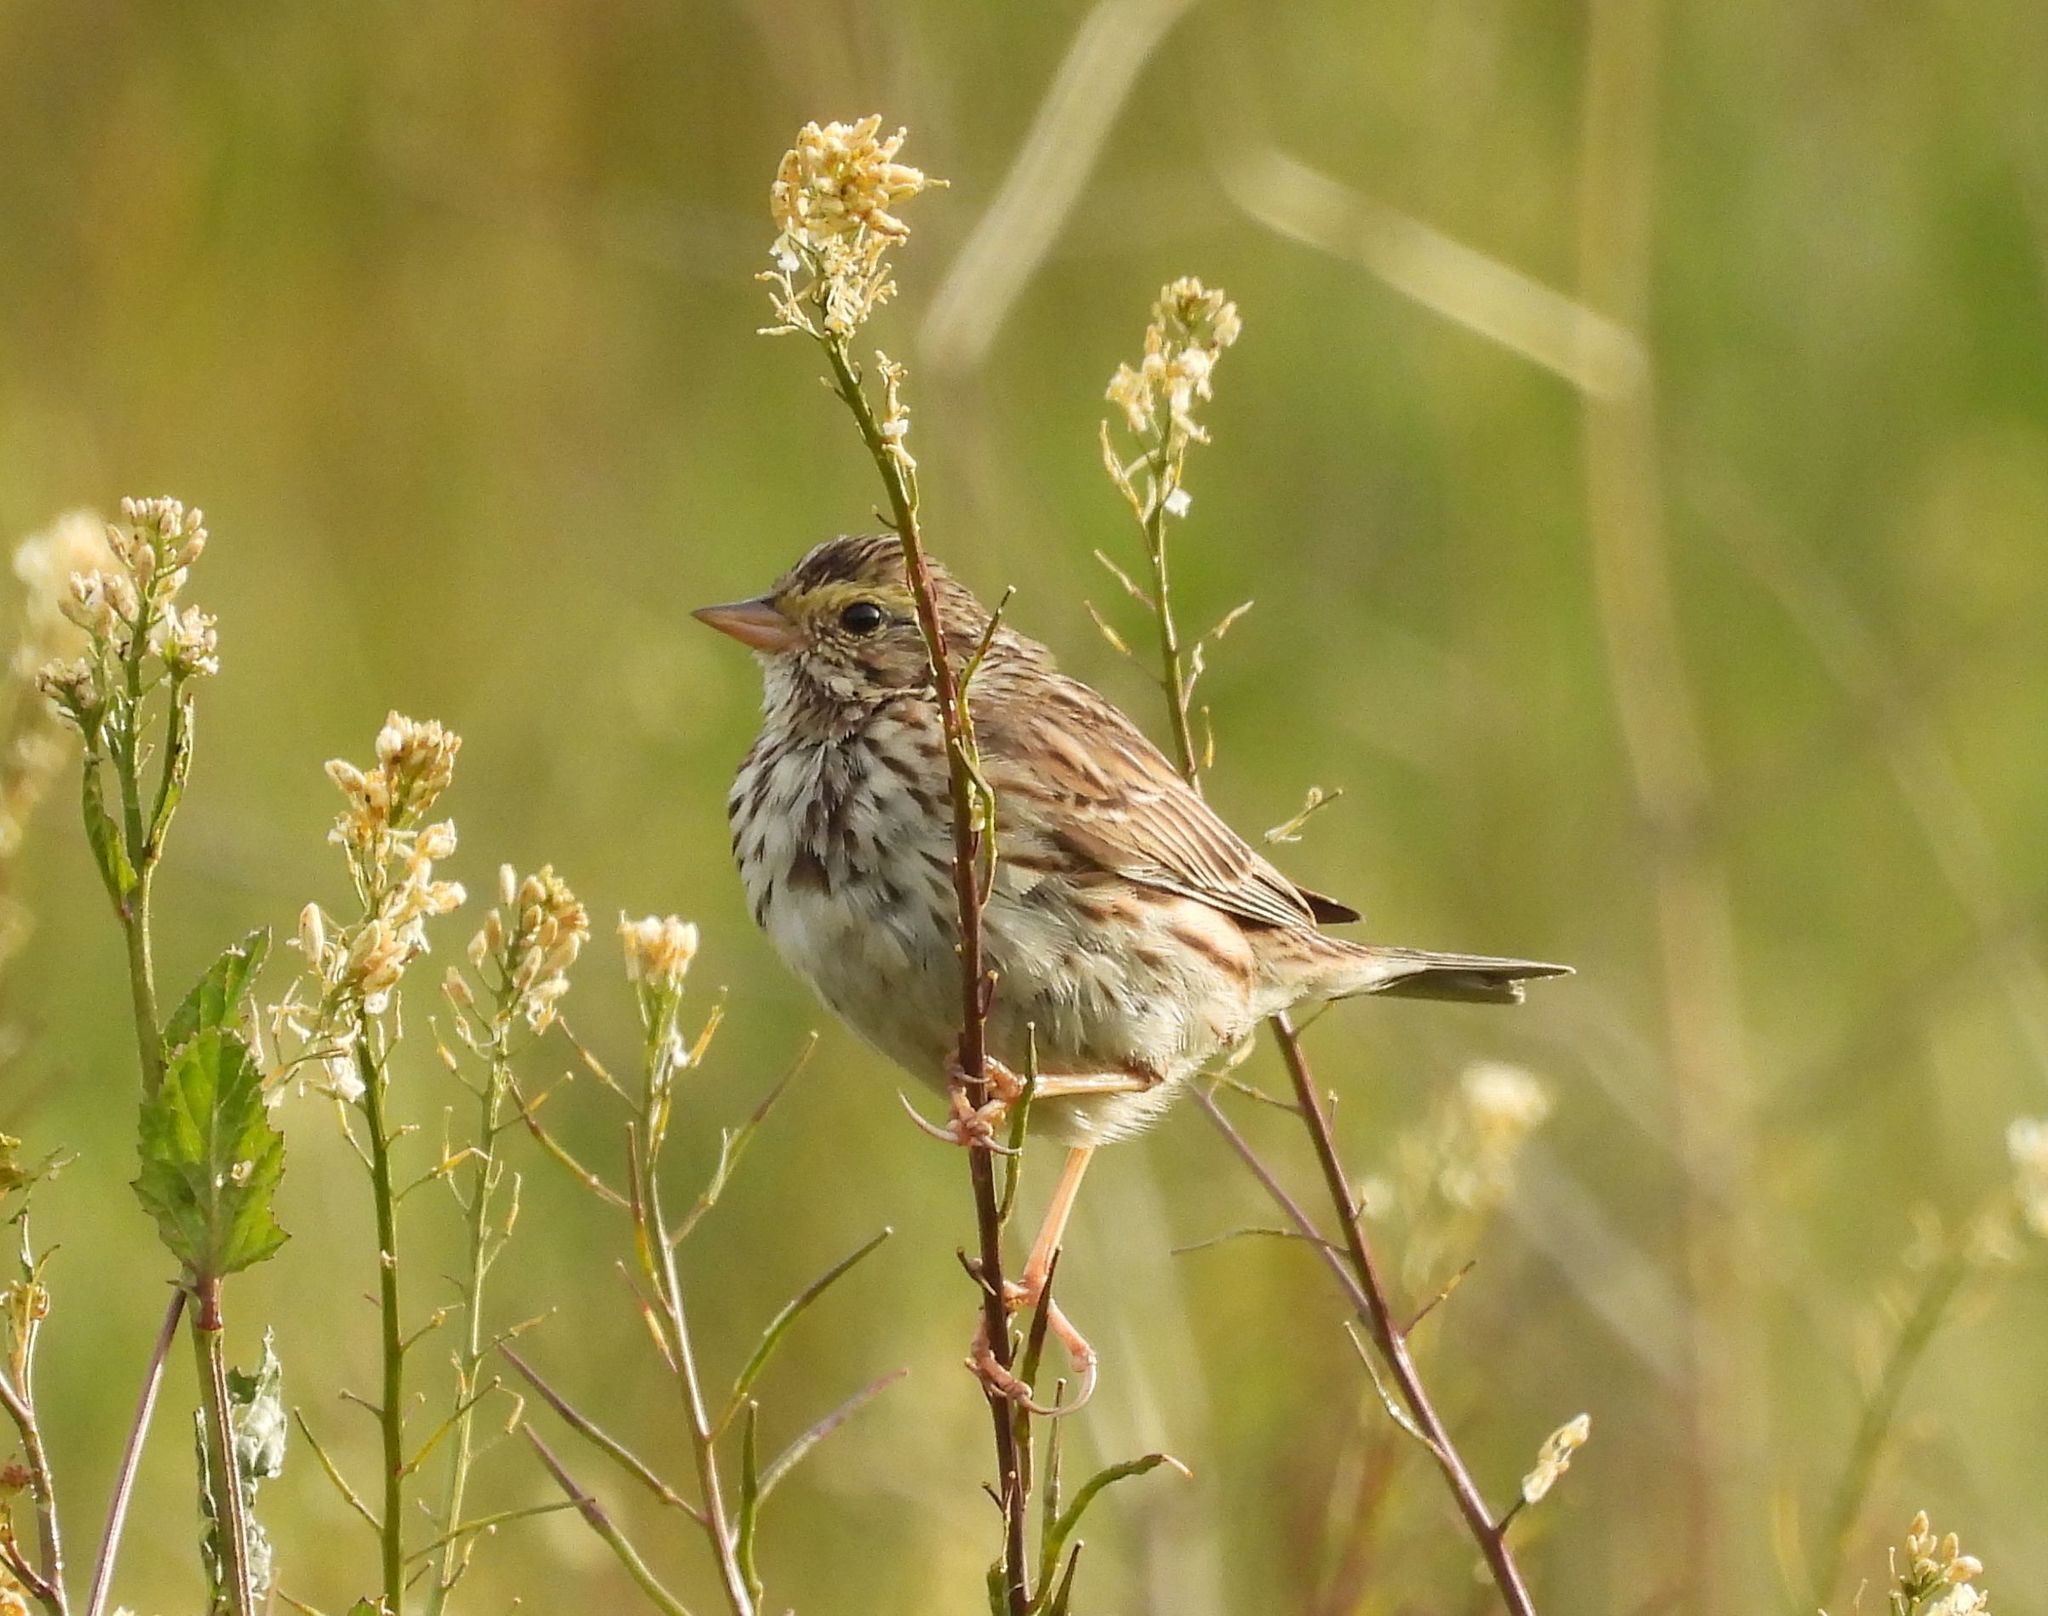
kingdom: Animalia
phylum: Chordata
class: Aves
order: Passeriformes
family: Passerellidae
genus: Passerculus
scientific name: Passerculus sandwichensis
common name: Savannah sparrow
